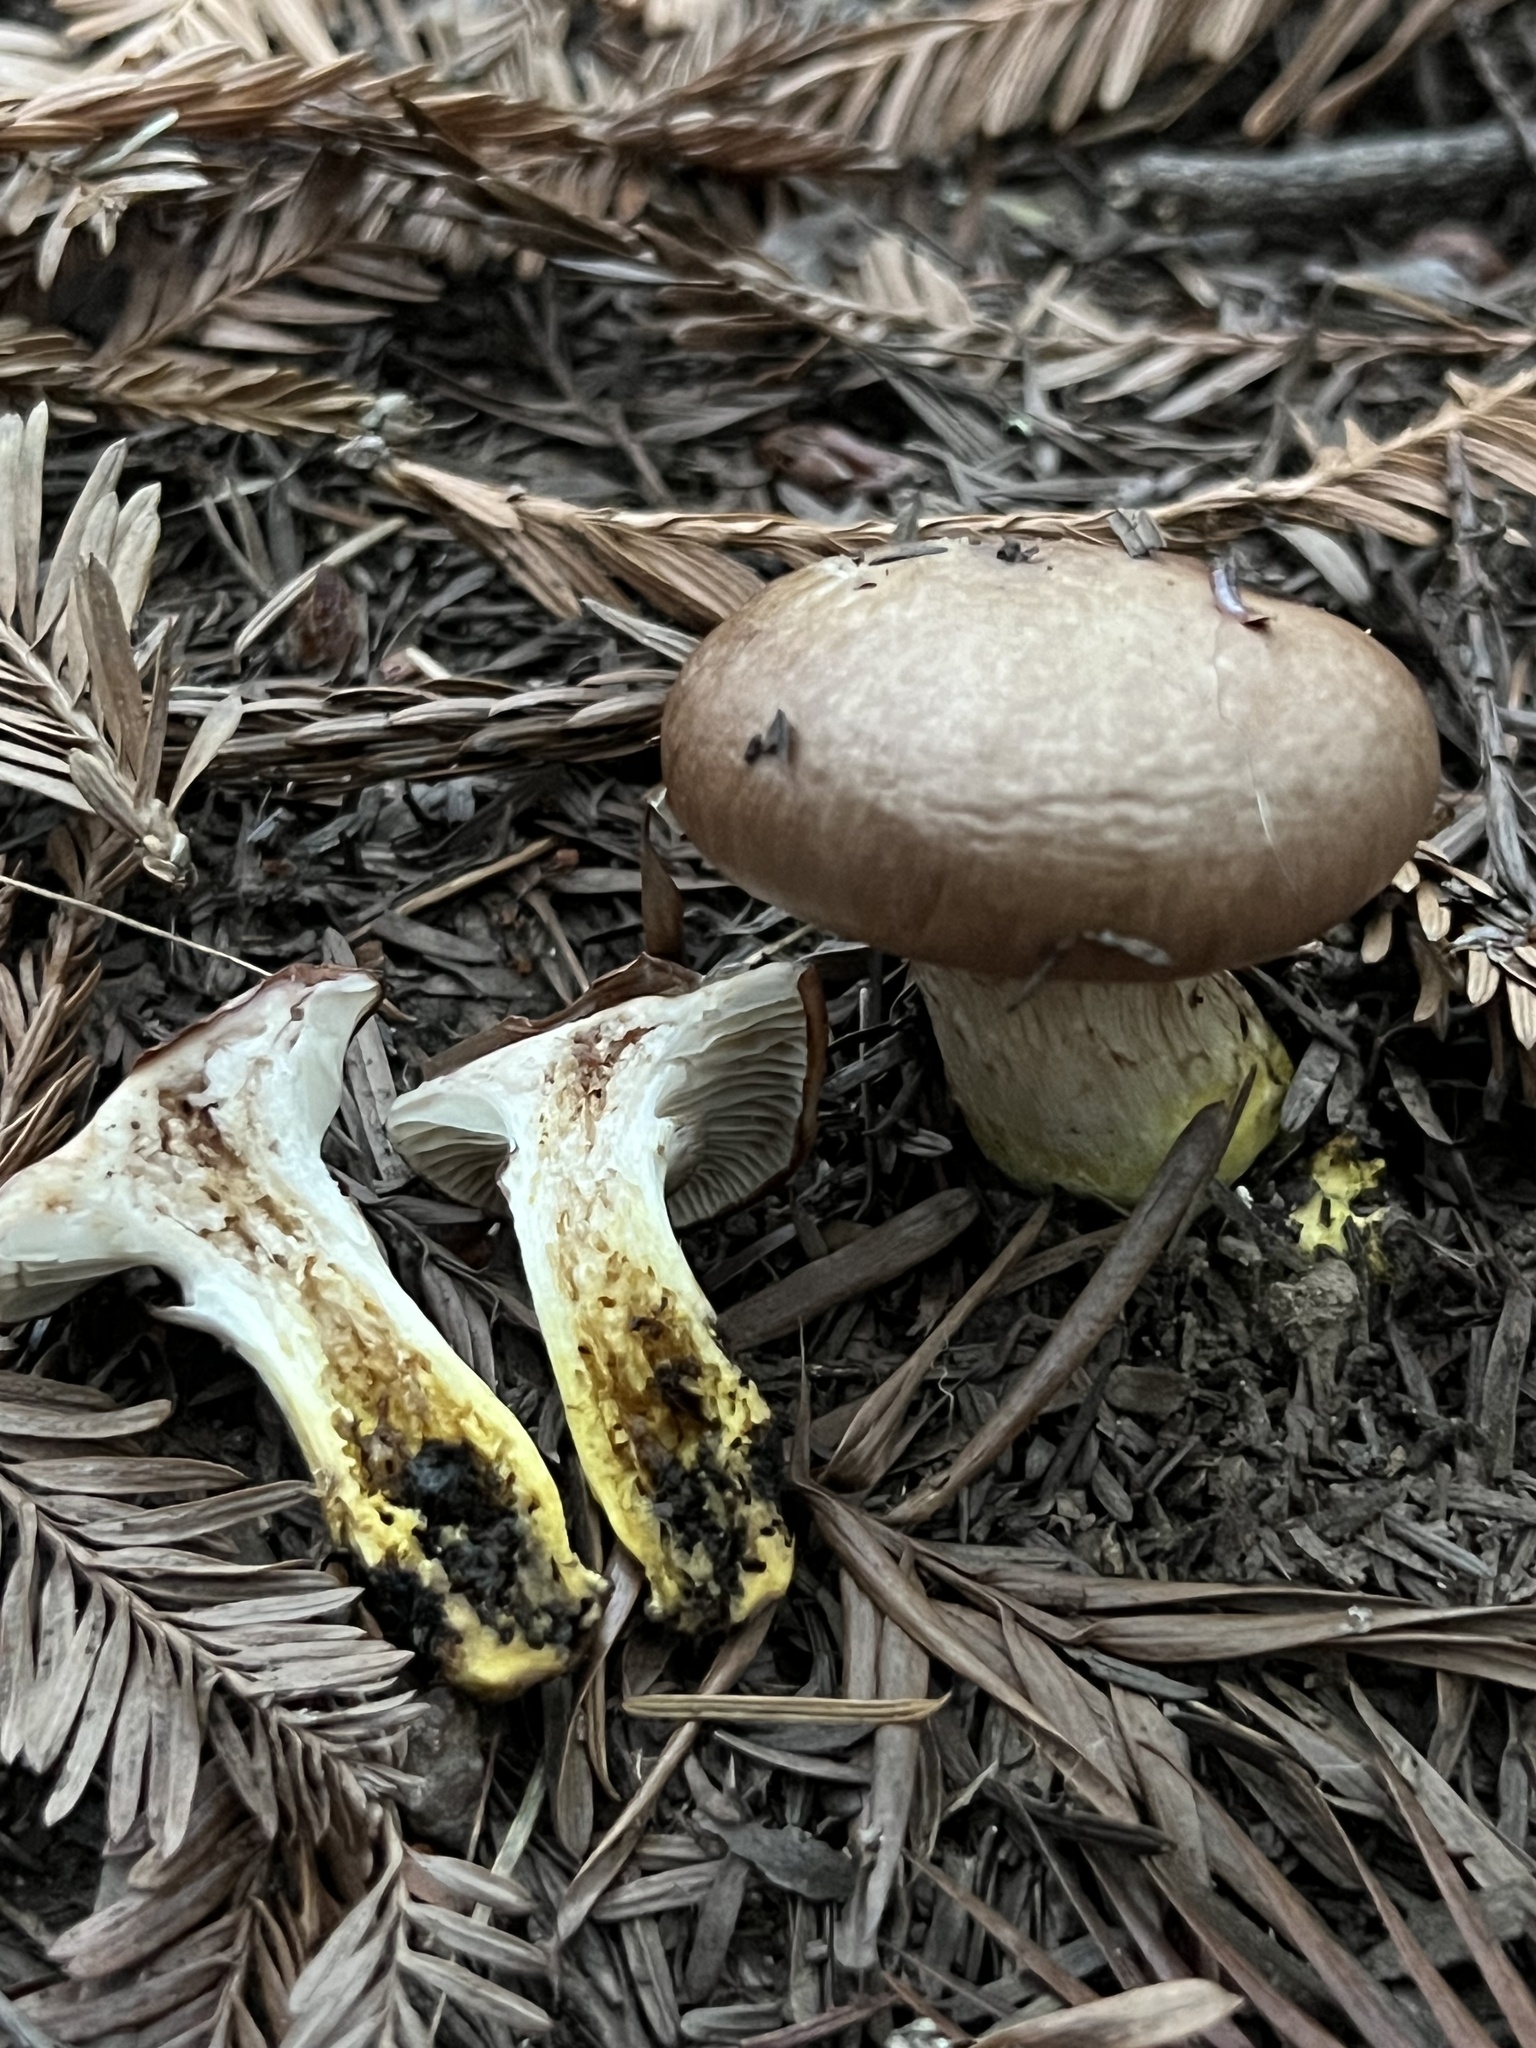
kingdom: Fungi
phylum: Basidiomycota
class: Agaricomycetes
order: Boletales
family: Gomphidiaceae
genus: Gomphidius
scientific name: Gomphidius oregonensis
